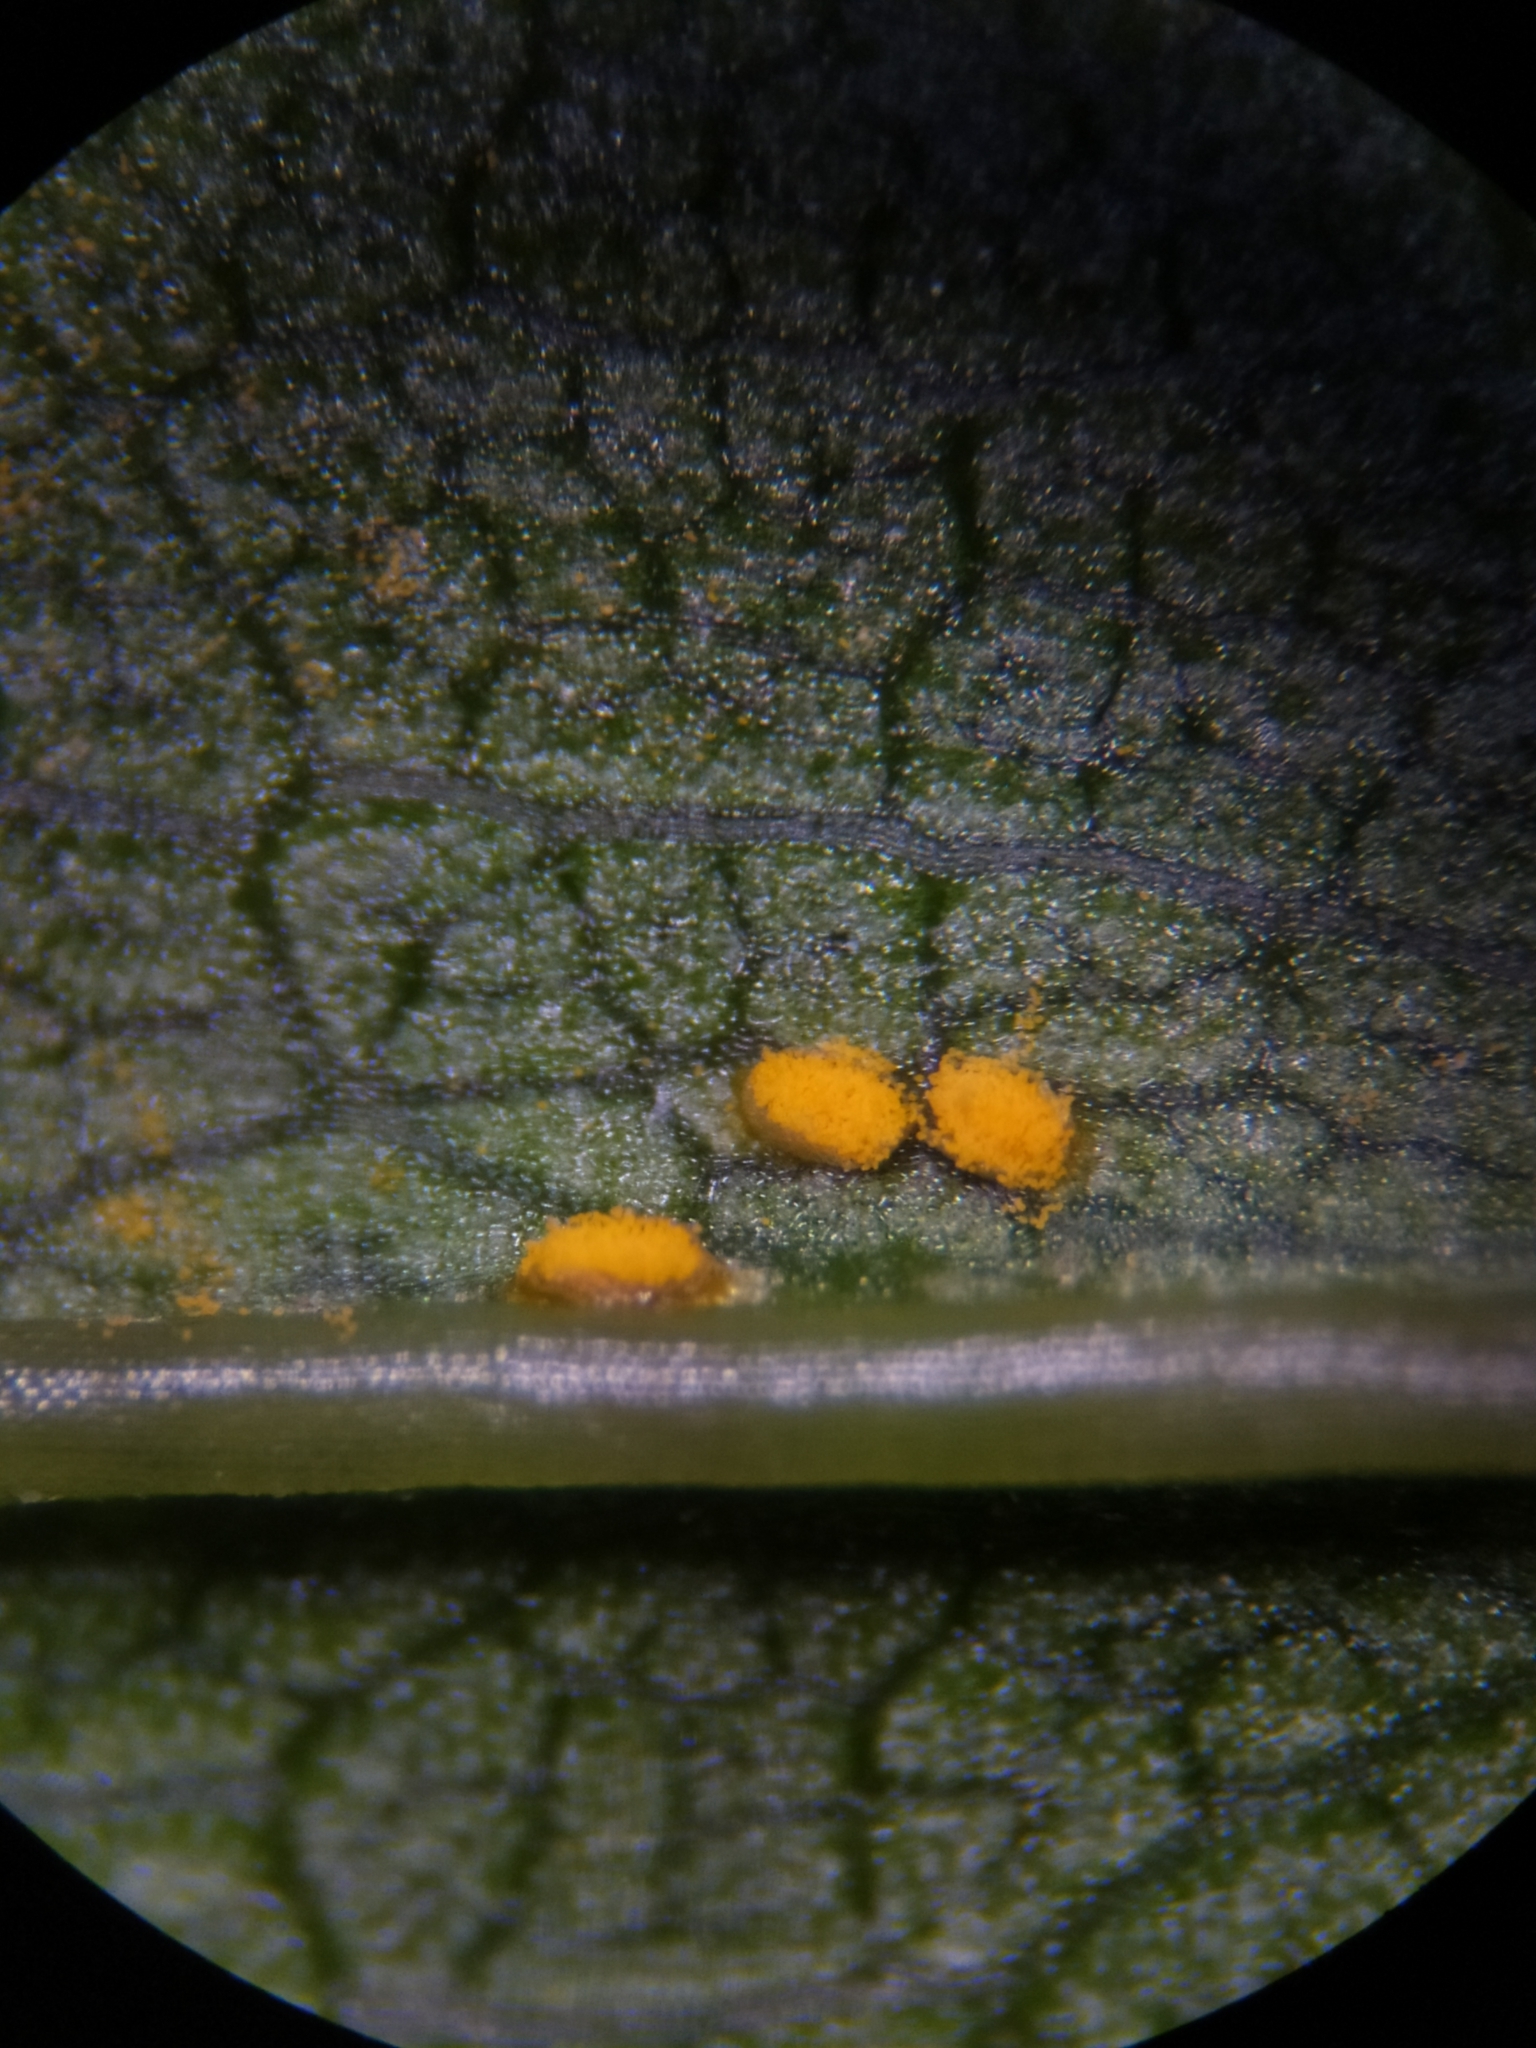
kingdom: Fungi
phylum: Basidiomycota
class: Pucciniomycetes
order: Pucciniales
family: Coleosporiaceae
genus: Coleosporium
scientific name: Coleosporium asterum
